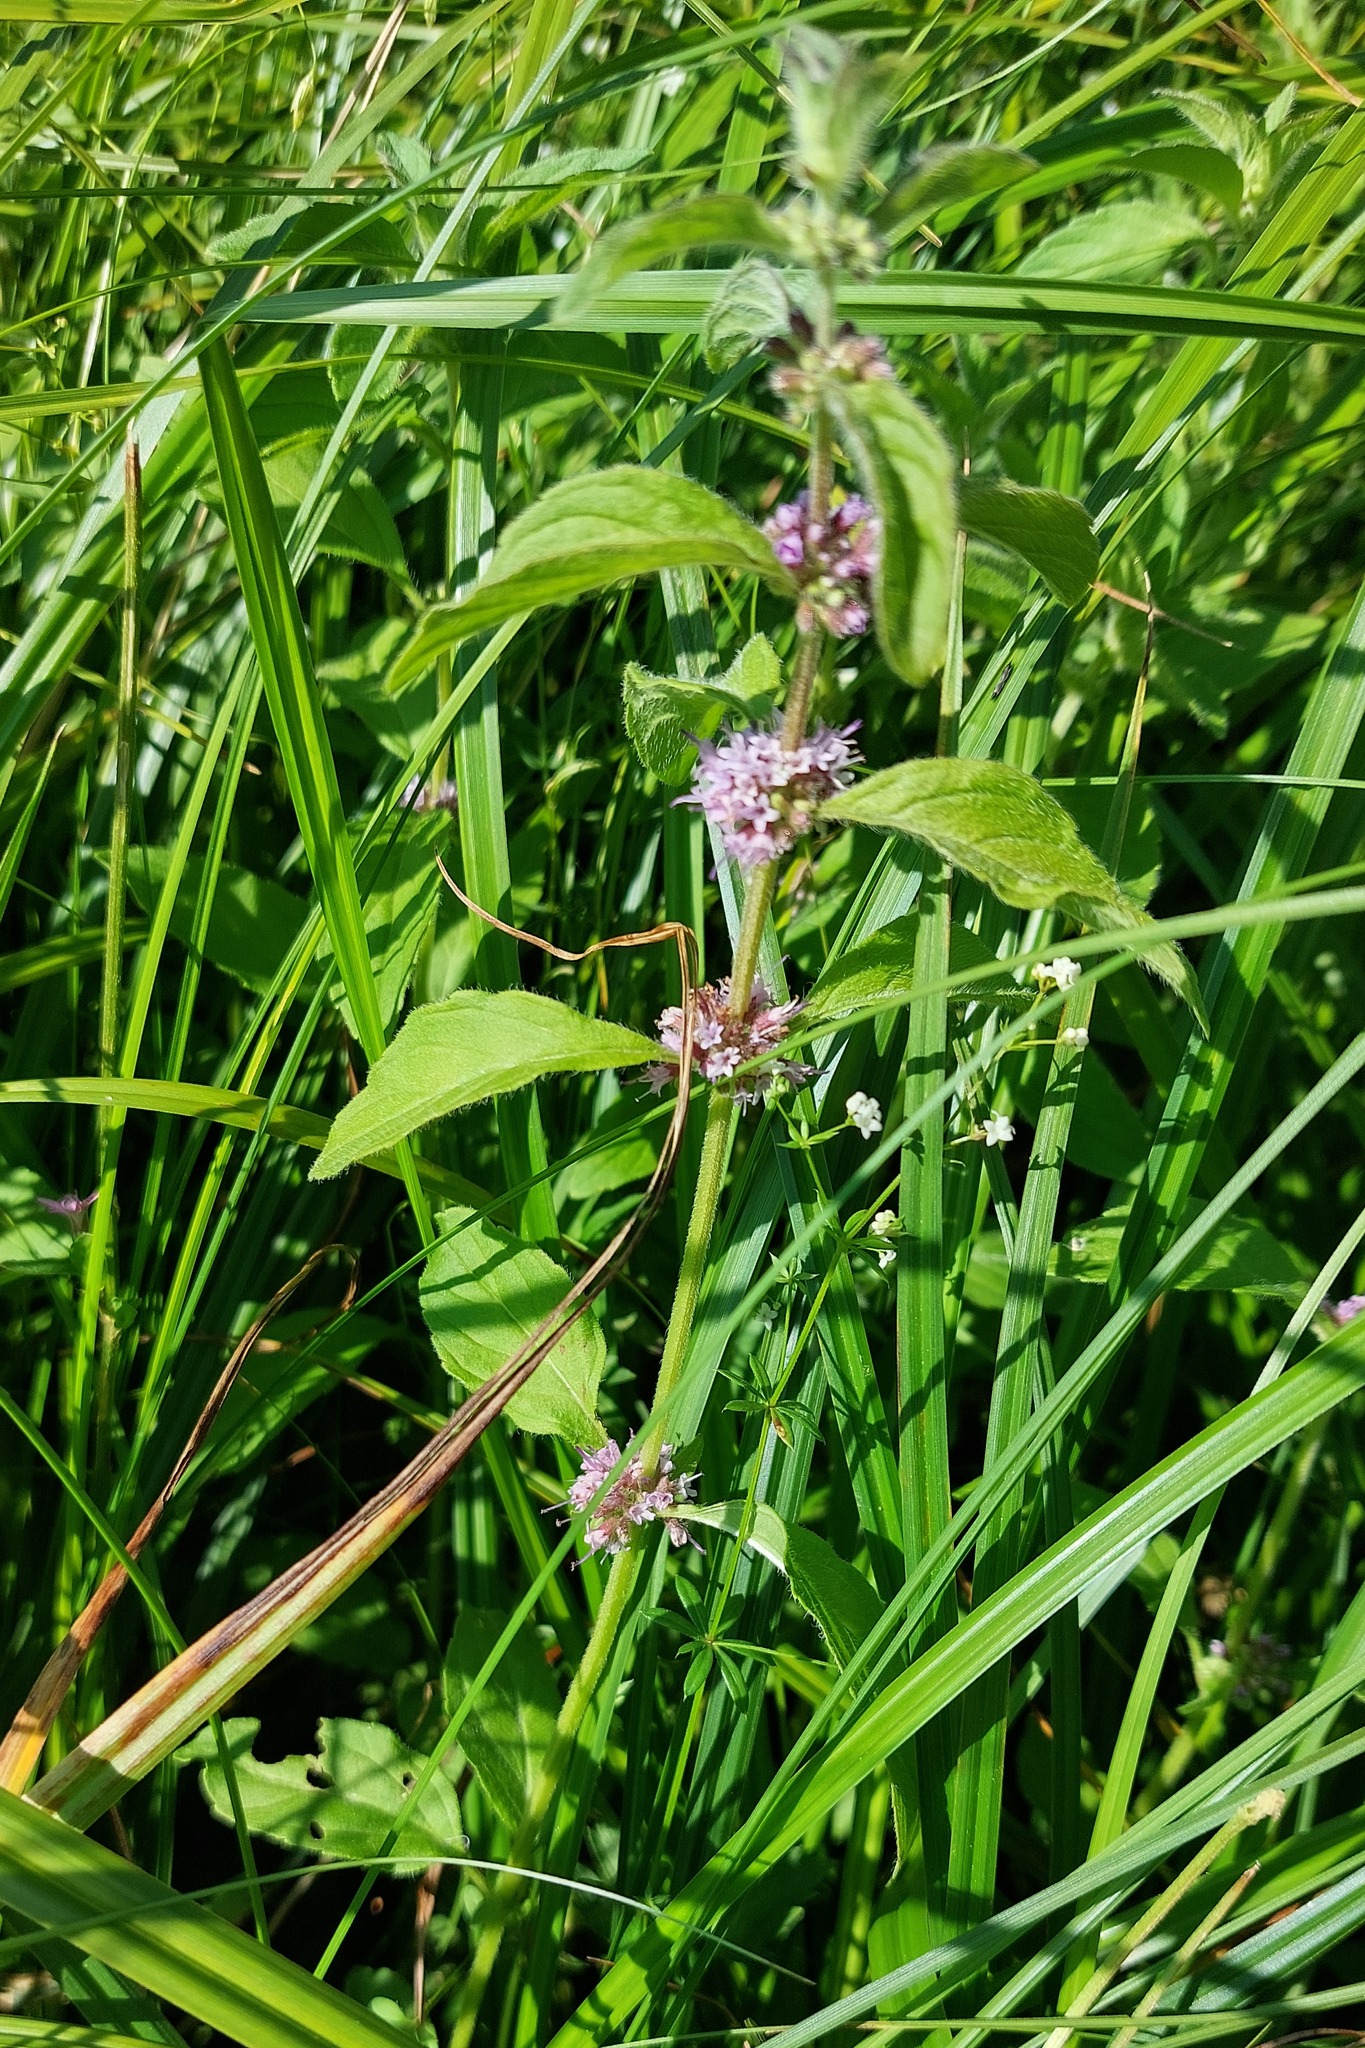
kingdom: Plantae
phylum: Tracheophyta
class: Magnoliopsida
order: Lamiales
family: Lamiaceae
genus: Mentha
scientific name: Mentha arvensis
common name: Corn mint
